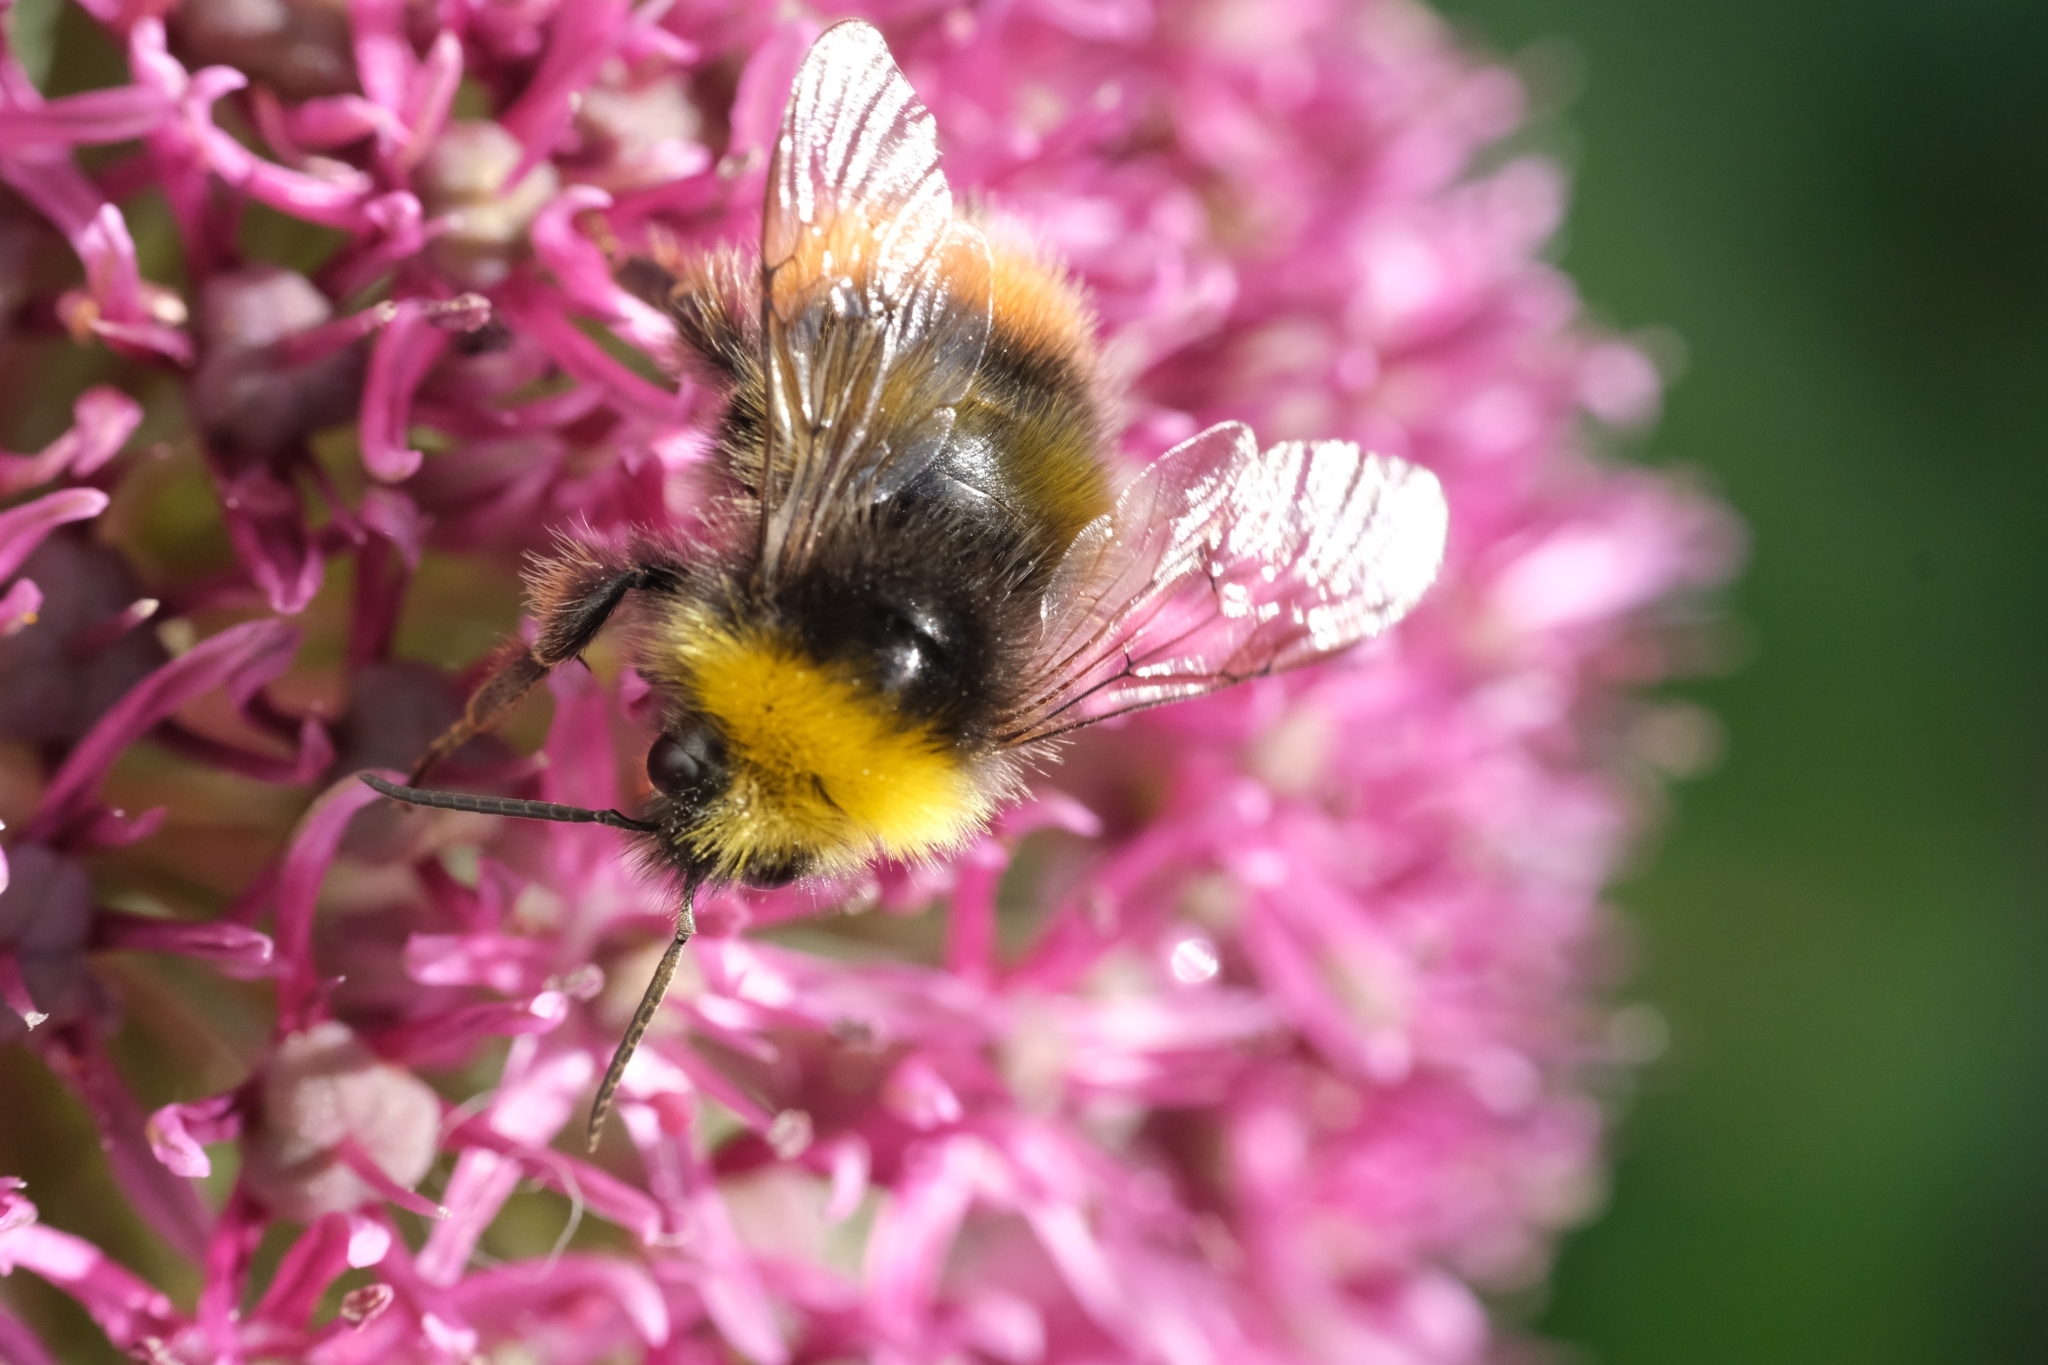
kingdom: Animalia
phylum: Arthropoda
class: Insecta
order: Hymenoptera
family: Apidae
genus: Bombus
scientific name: Bombus pratorum
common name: Early humble-bee
